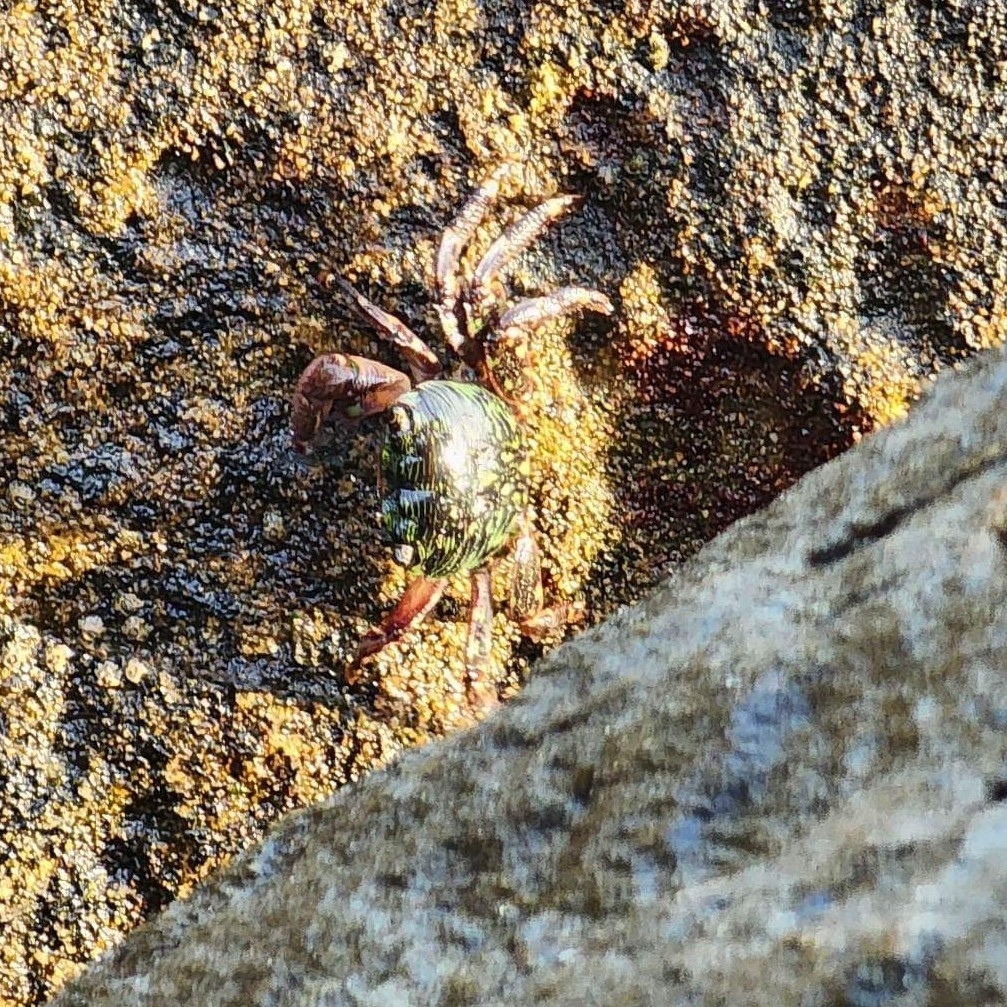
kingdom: Animalia
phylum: Arthropoda
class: Malacostraca
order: Decapoda
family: Grapsidae
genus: Pachygrapsus
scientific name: Pachygrapsus crassipes
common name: Striped shore crab
